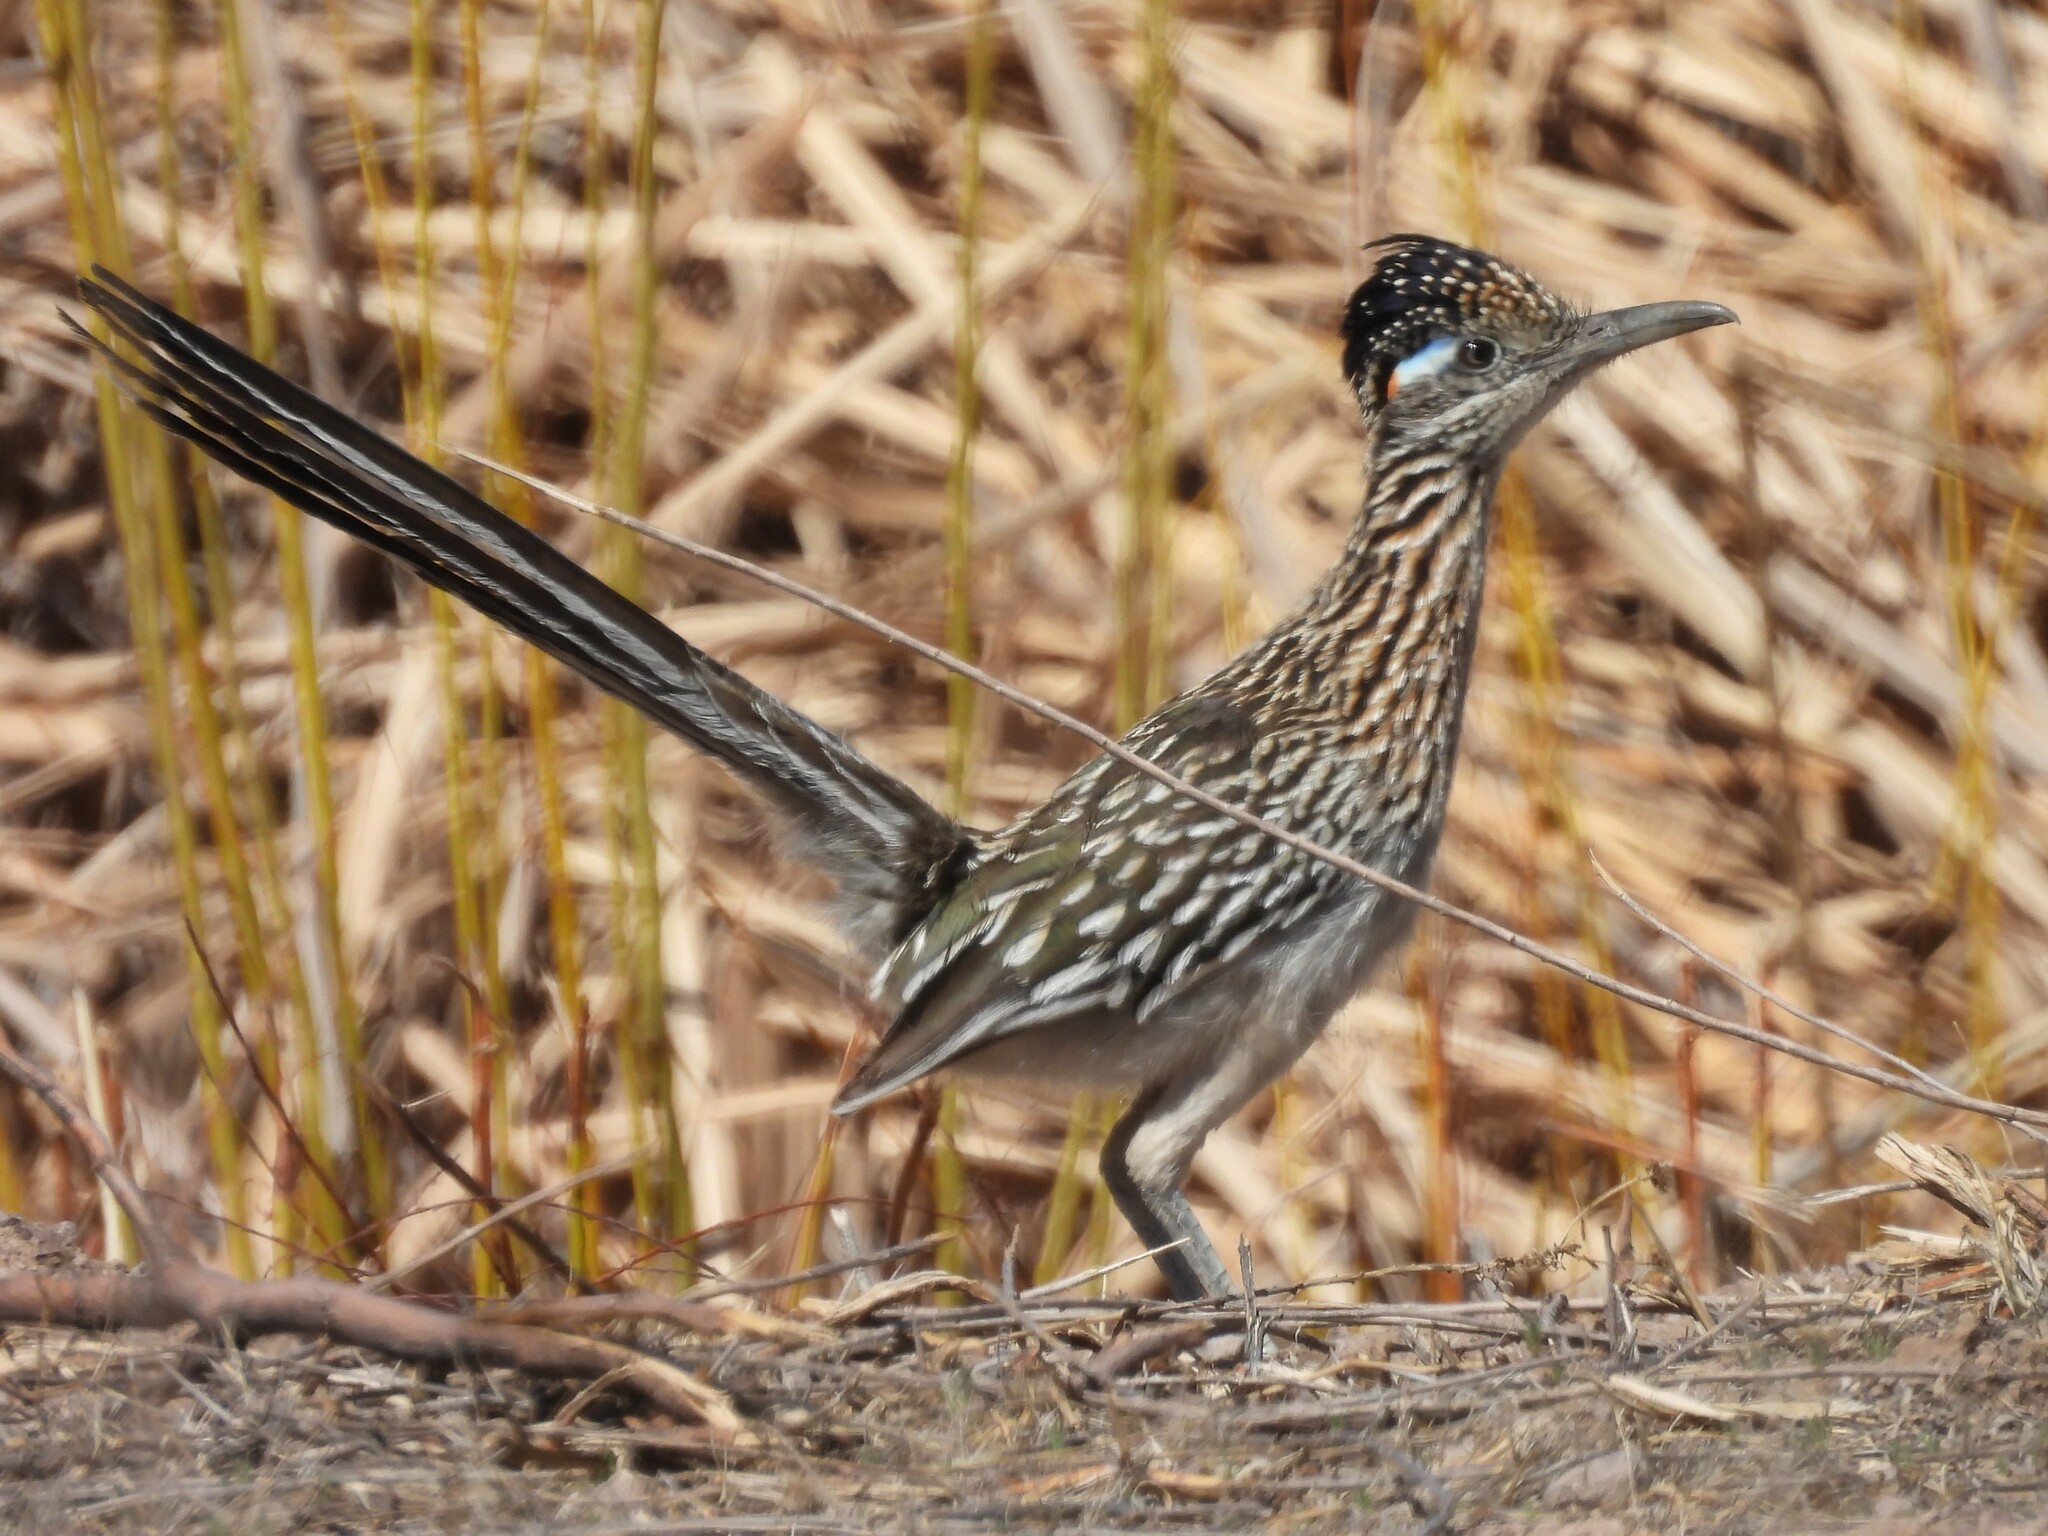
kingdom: Animalia
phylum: Chordata
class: Aves
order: Cuculiformes
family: Cuculidae
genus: Geococcyx
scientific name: Geococcyx californianus
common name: Greater roadrunner
